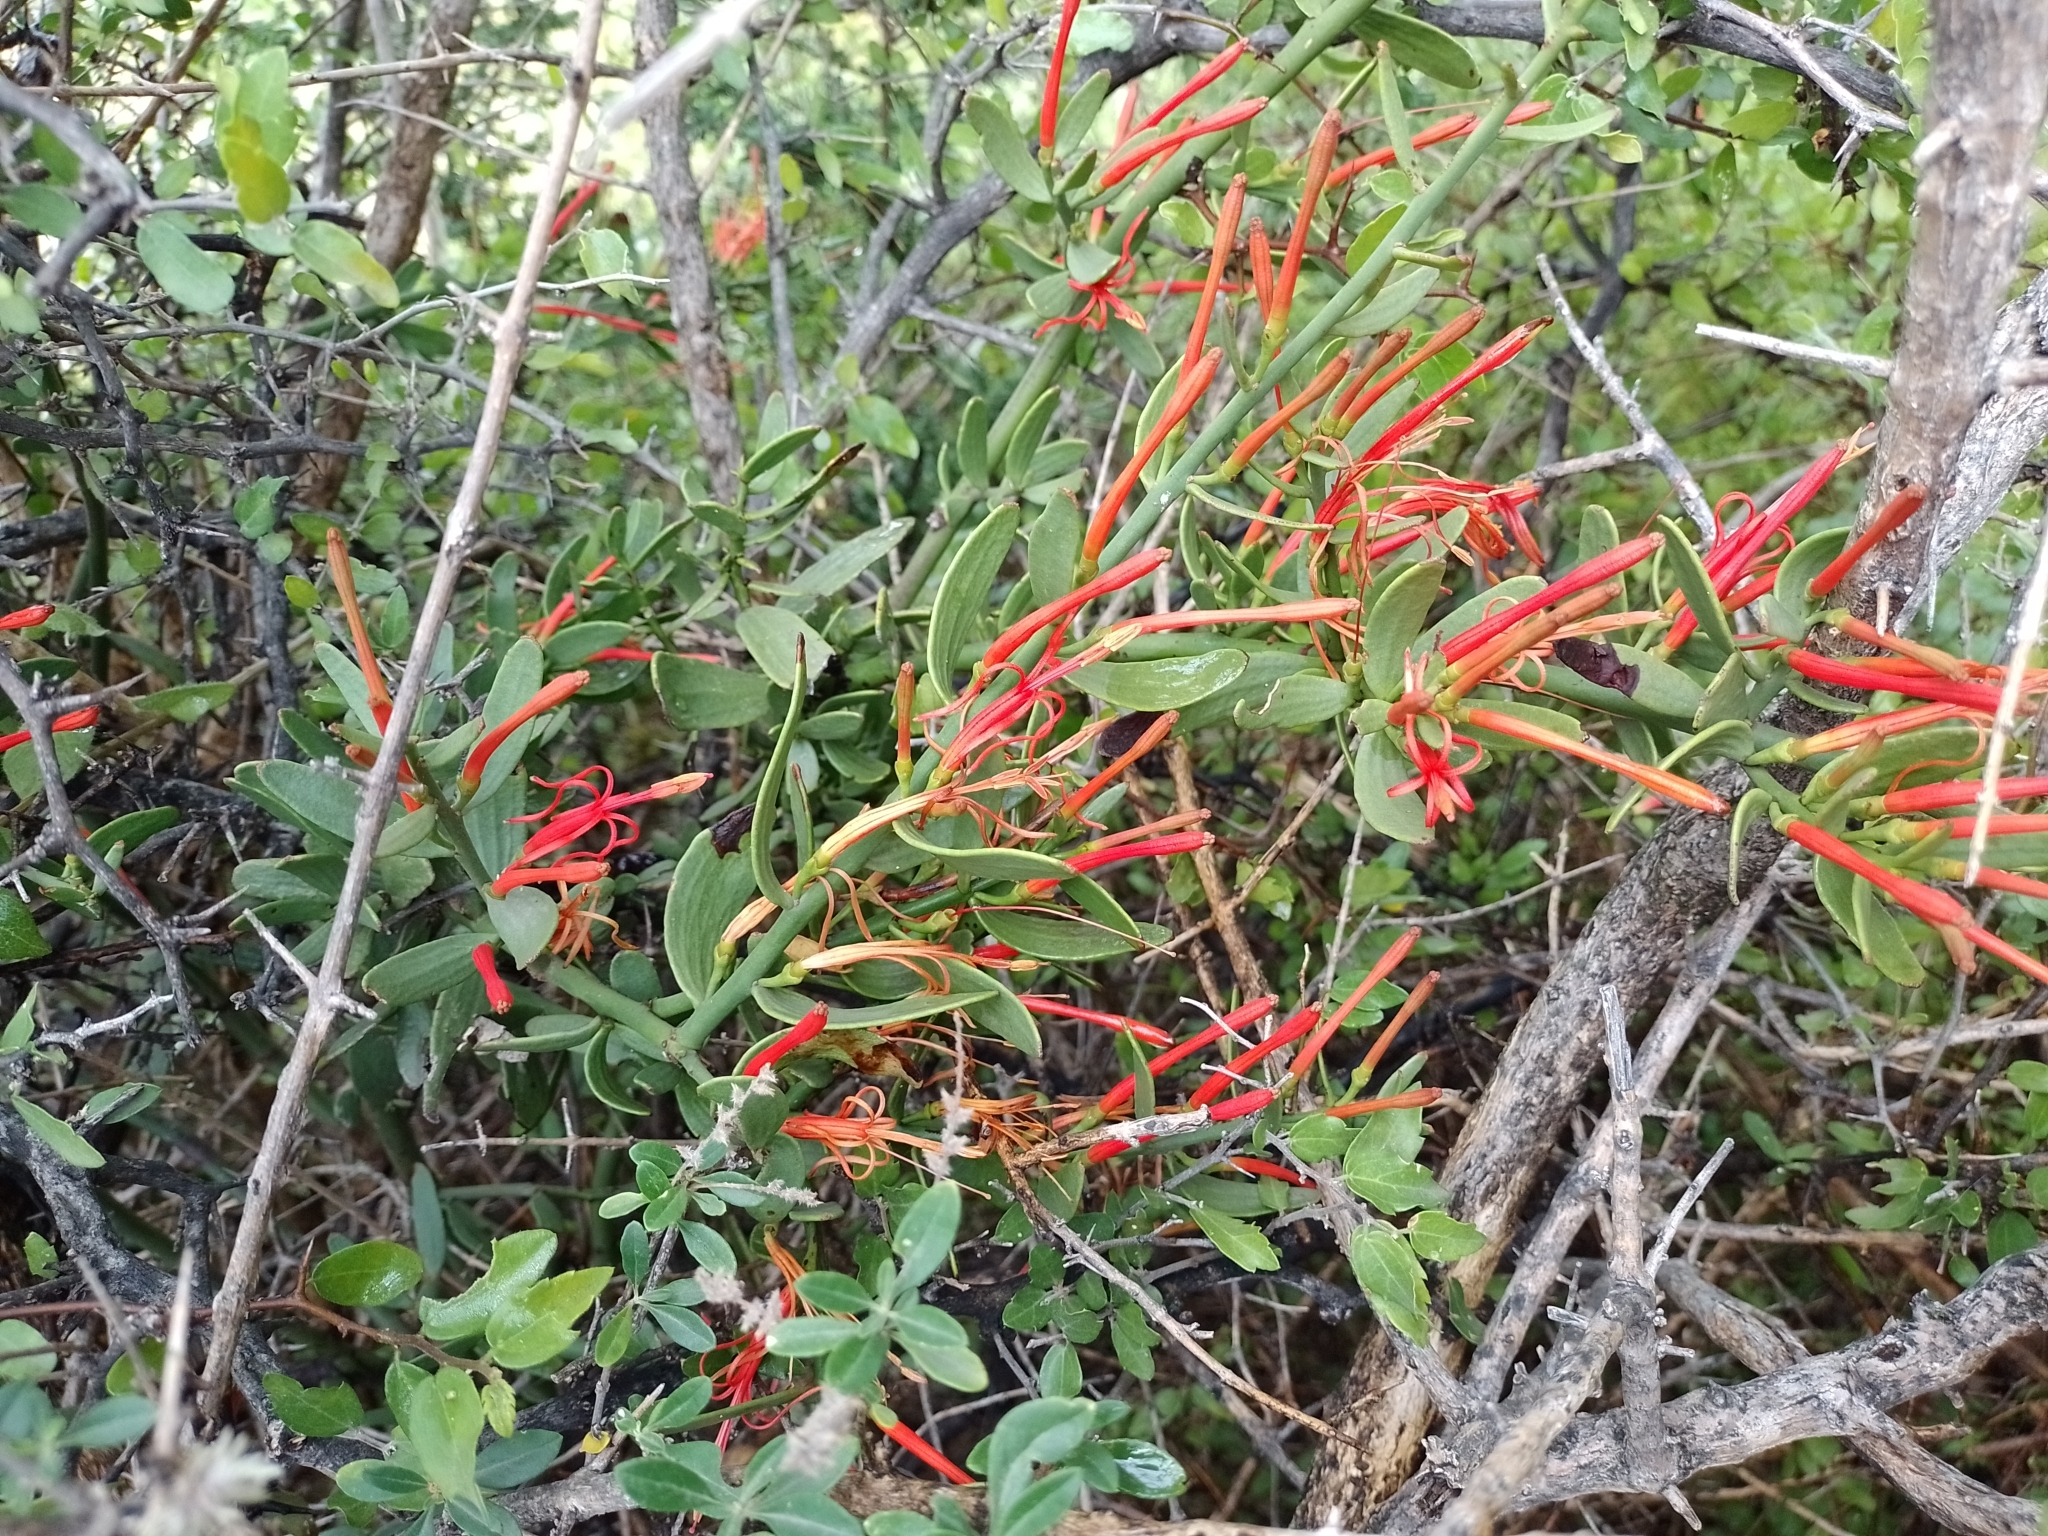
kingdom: Plantae
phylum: Tracheophyta
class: Magnoliopsida
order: Santalales
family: Loranthaceae
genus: Ligaria
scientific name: Ligaria cuneifolia
